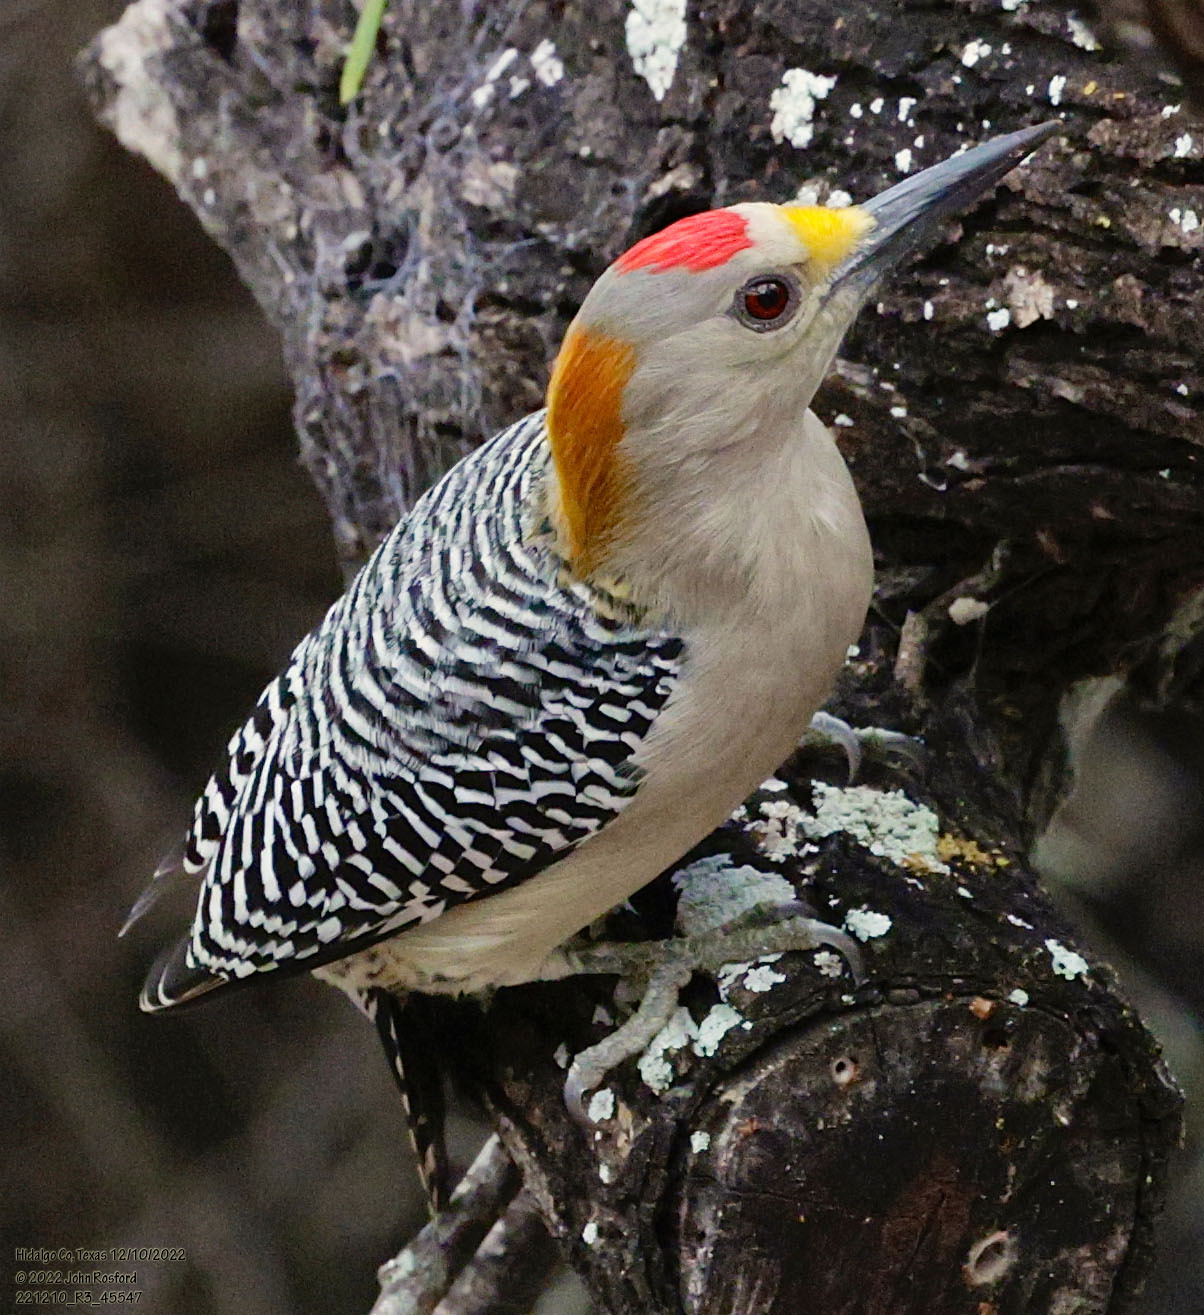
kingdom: Animalia
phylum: Chordata
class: Aves
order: Piciformes
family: Picidae
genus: Melanerpes
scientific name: Melanerpes aurifrons
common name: Golden-fronted woodpecker
